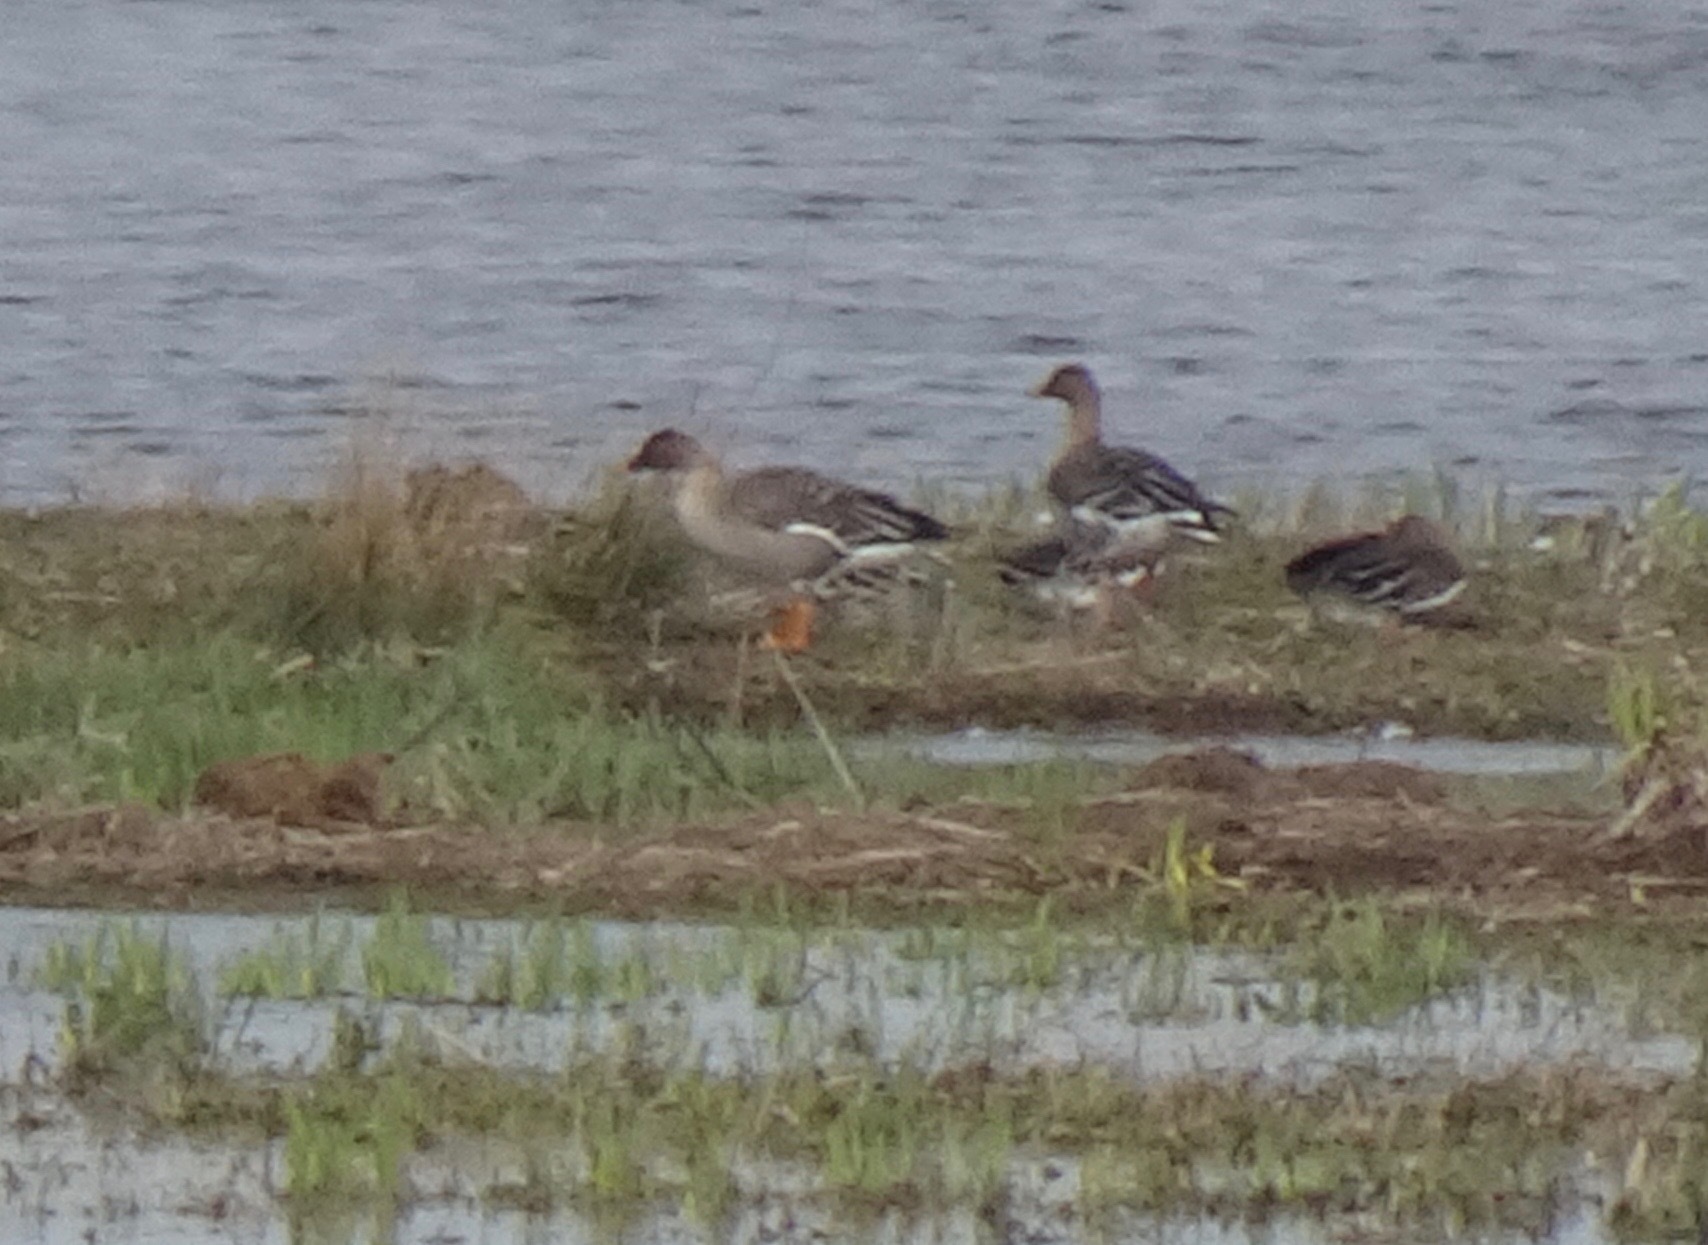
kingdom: Animalia
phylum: Chordata
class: Aves
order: Anseriformes
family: Anatidae
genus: Anser
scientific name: Anser serrirostris
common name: Tundra bean goose
